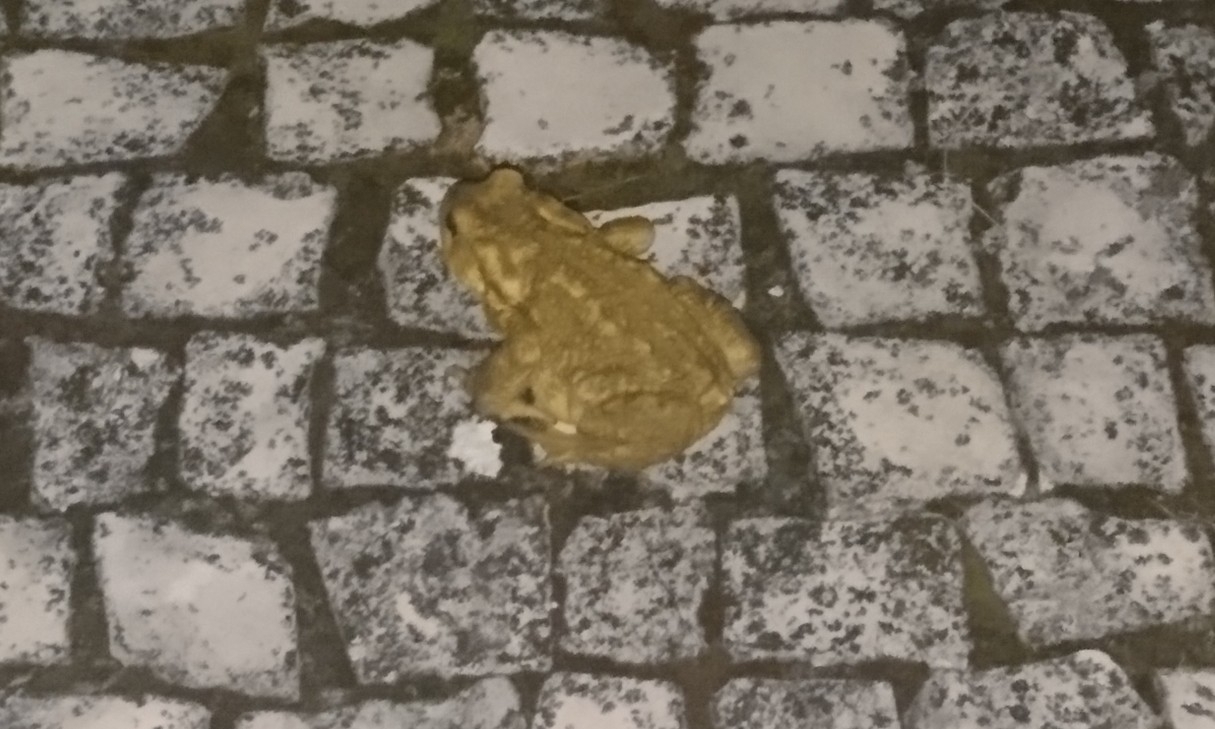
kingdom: Animalia
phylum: Chordata
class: Amphibia
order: Anura
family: Bufonidae
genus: Bufo
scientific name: Bufo spinosus
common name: Western common toad
